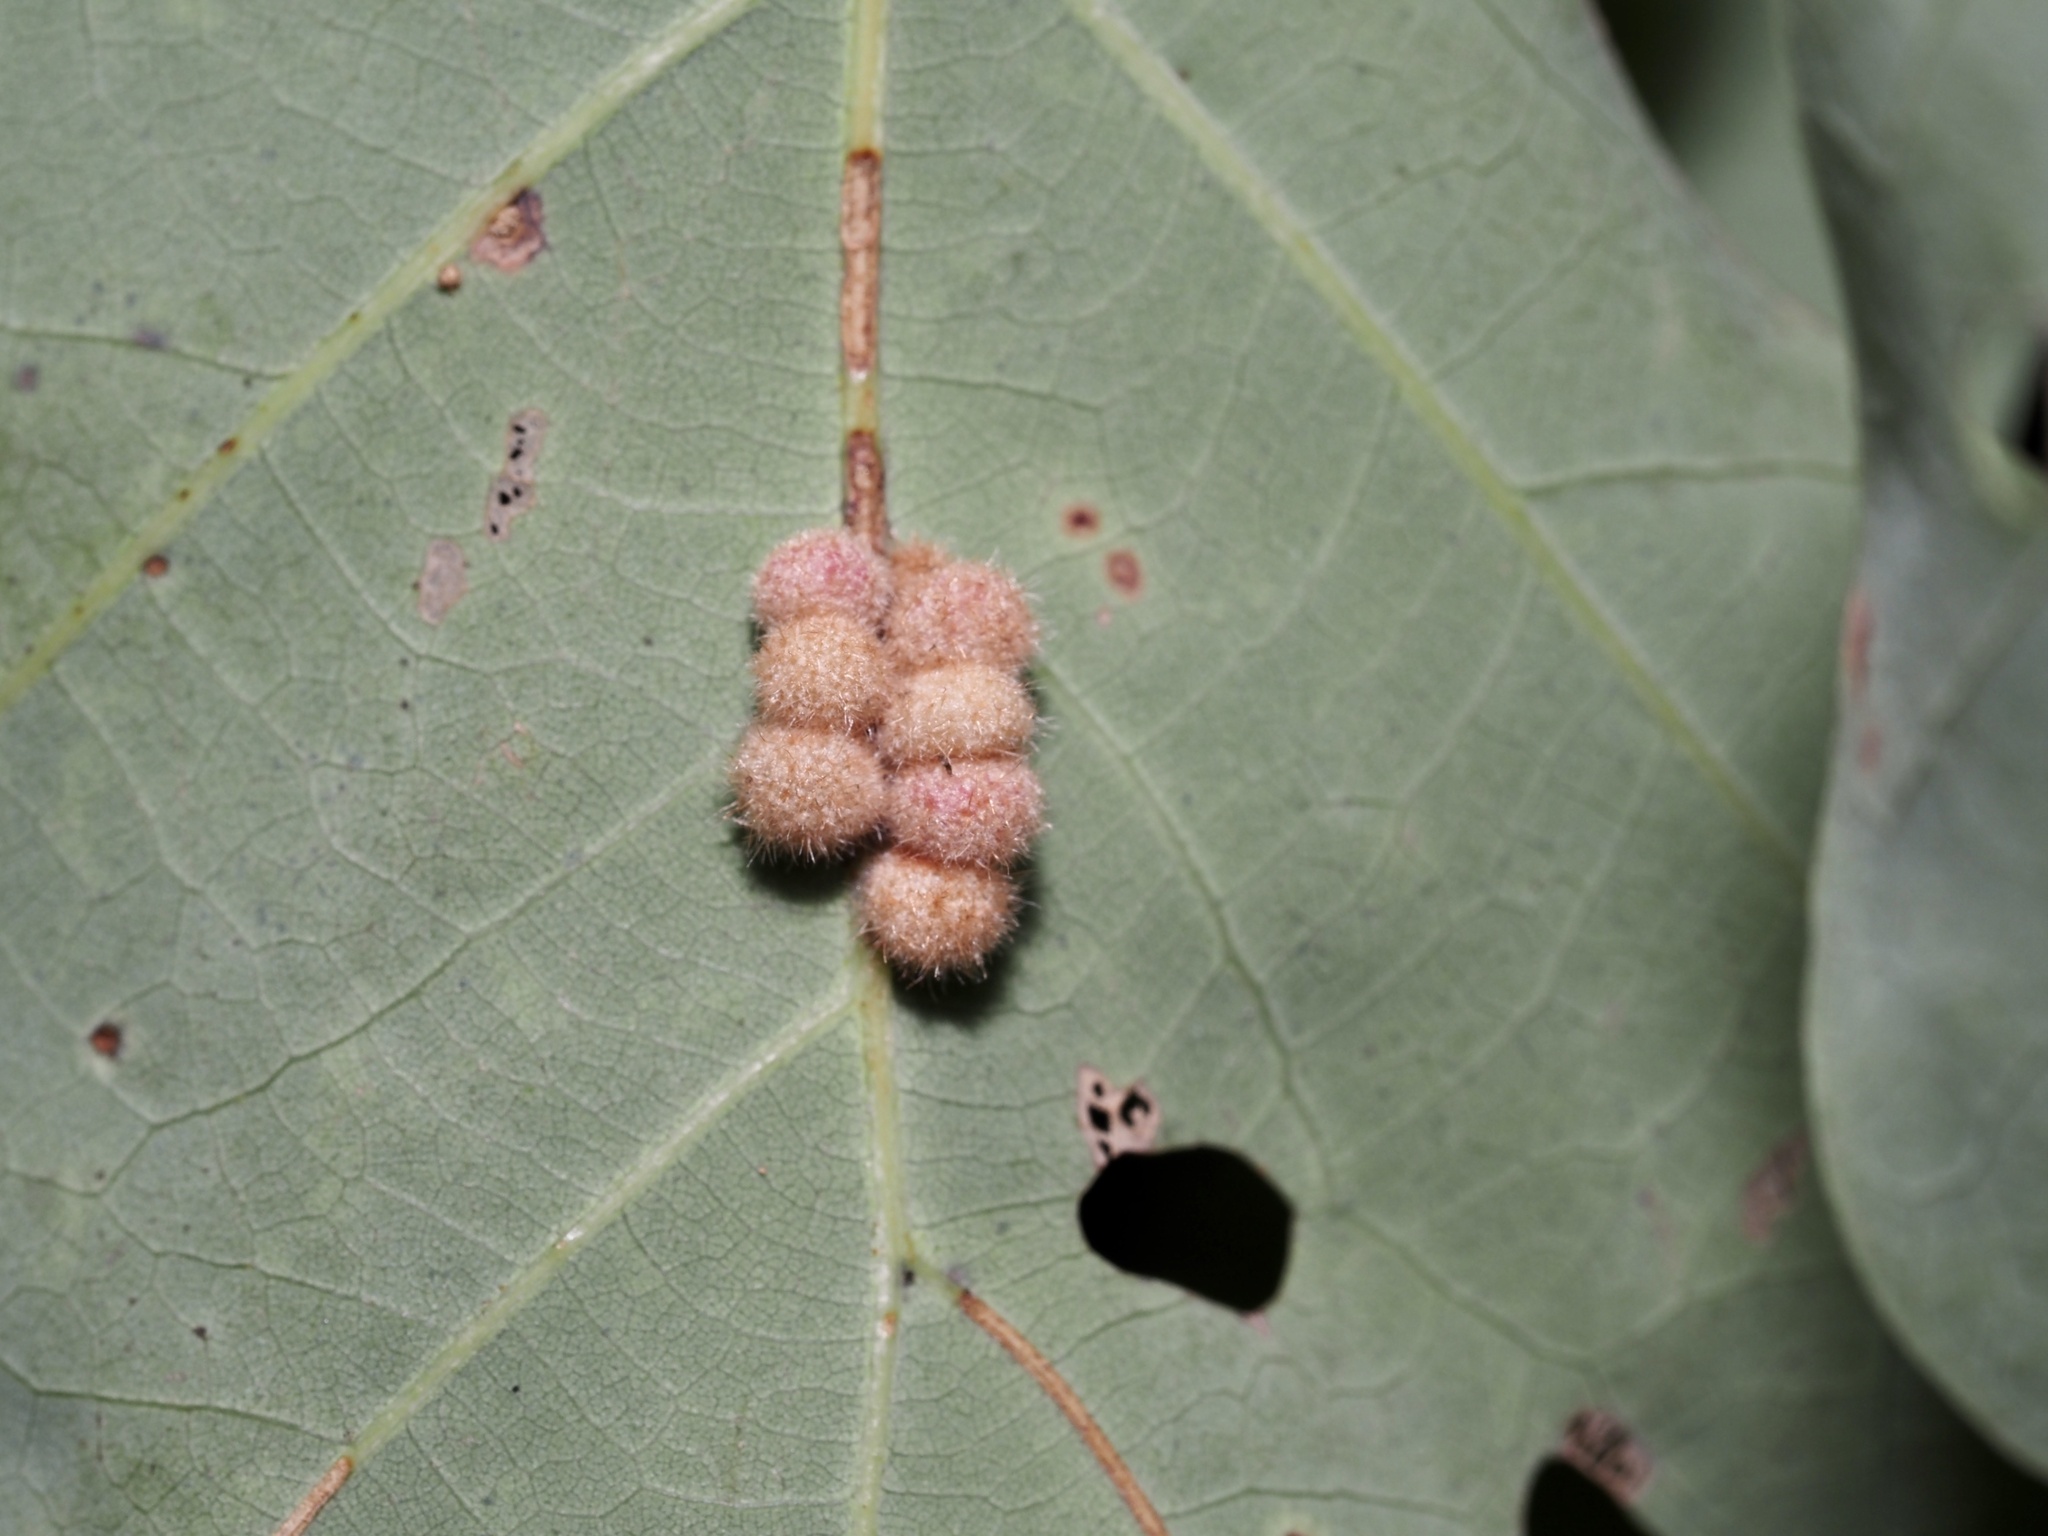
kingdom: Animalia
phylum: Arthropoda
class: Insecta
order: Hymenoptera
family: Cynipidae
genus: Andricus
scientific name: Andricus
